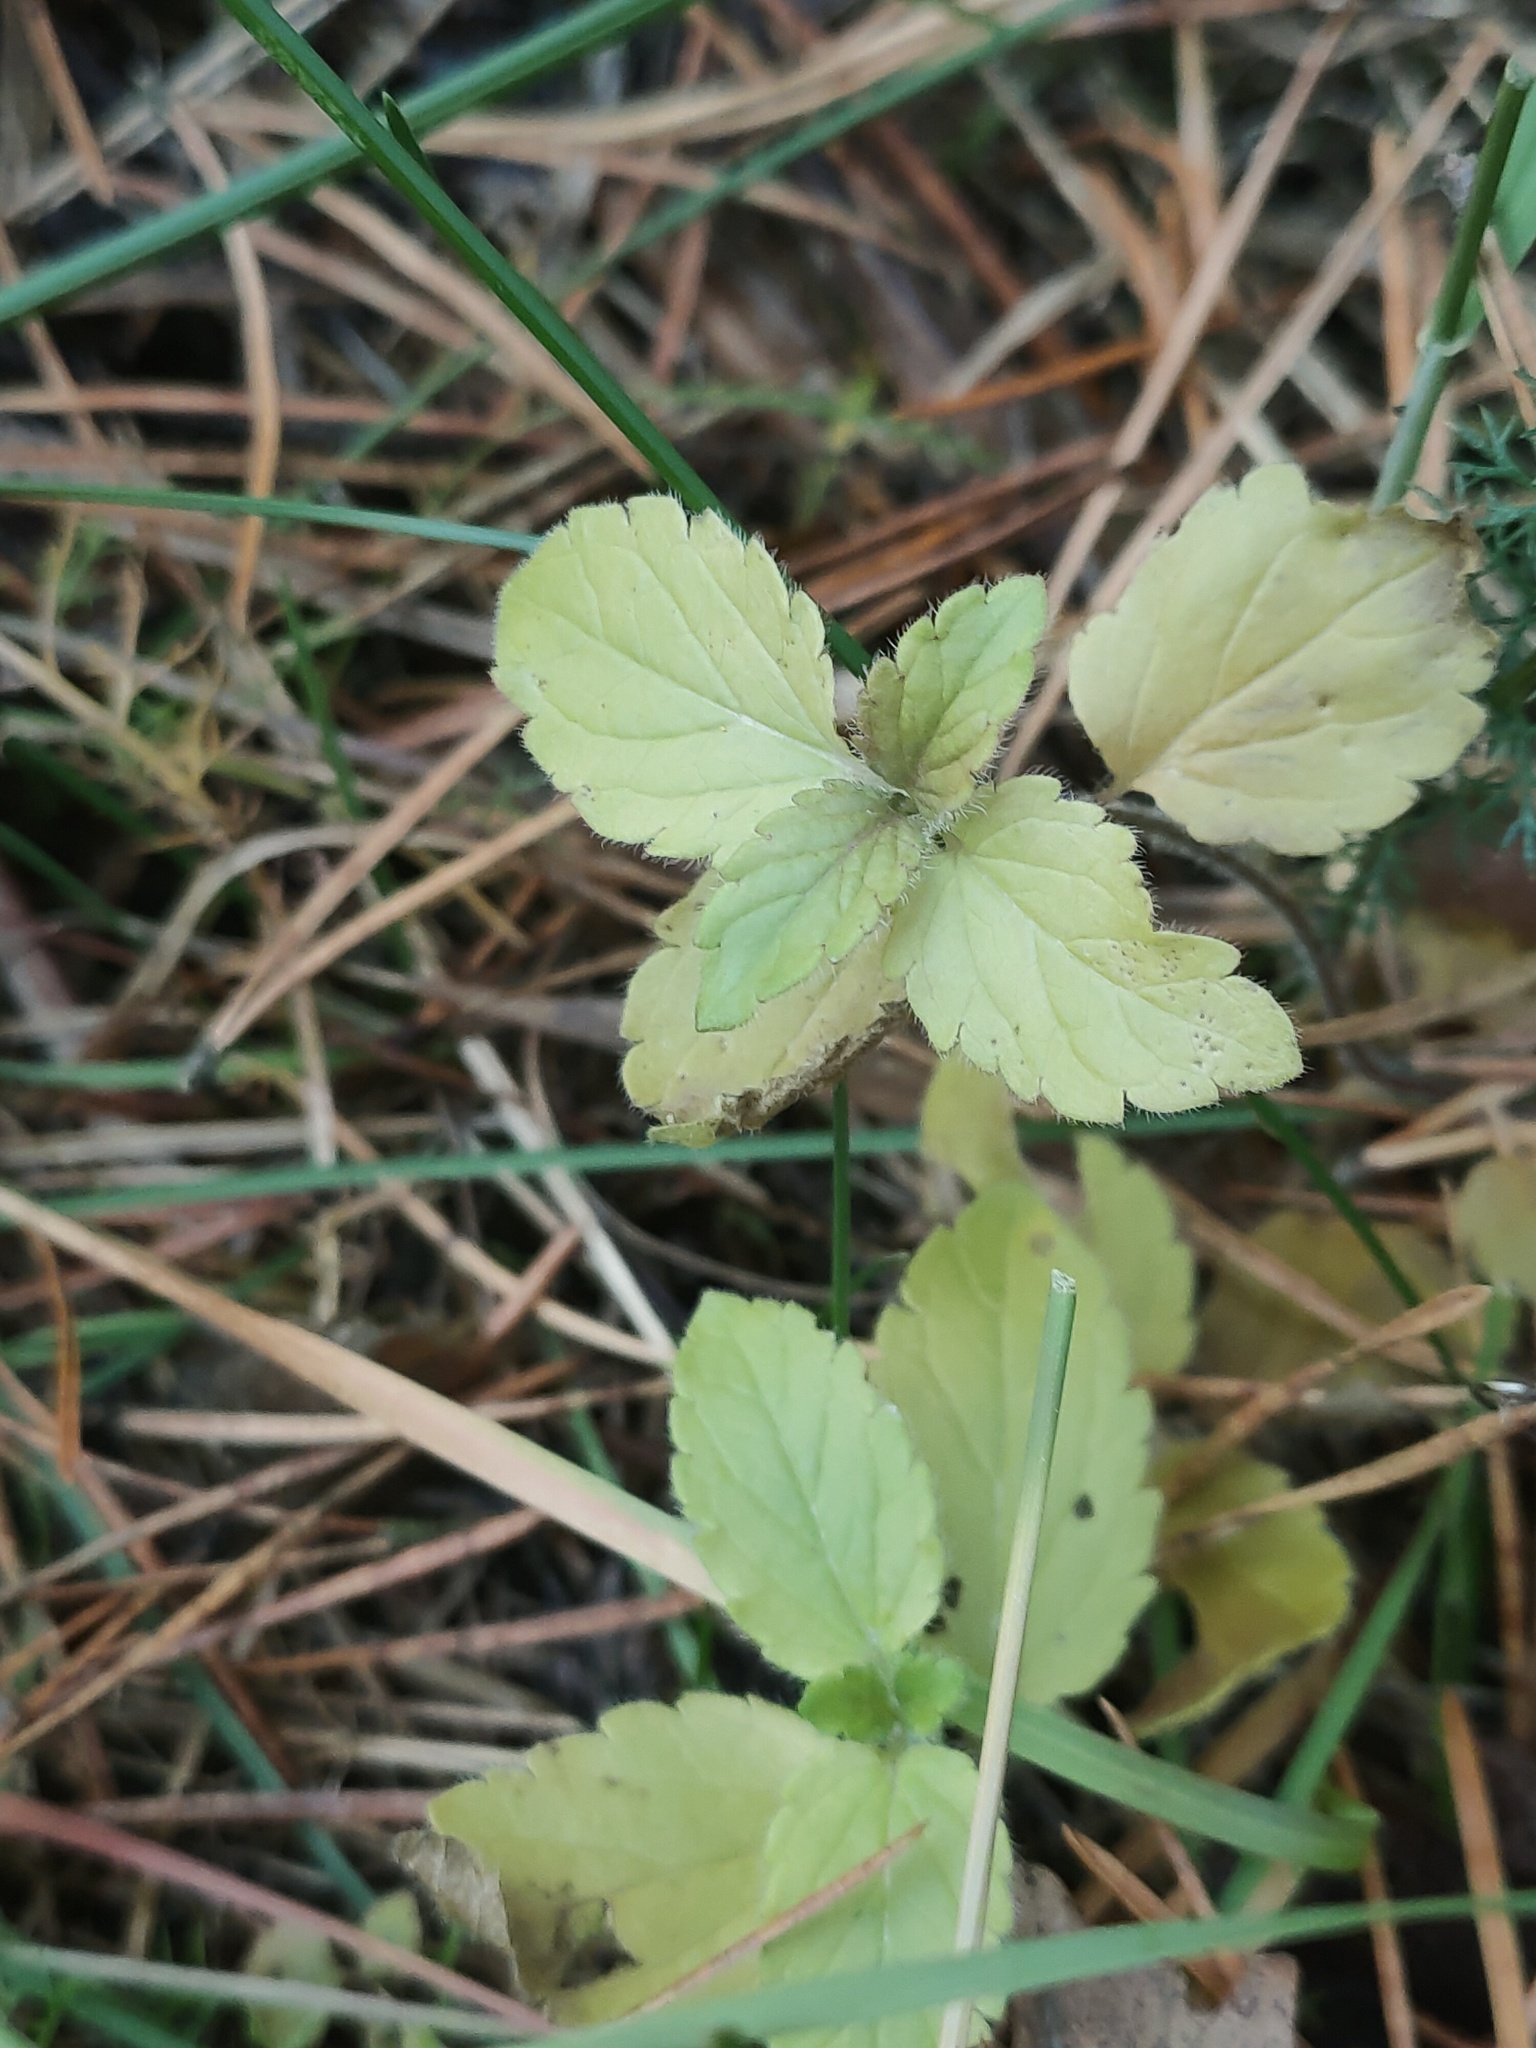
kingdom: Plantae
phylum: Tracheophyta
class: Magnoliopsida
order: Lamiales
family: Plantaginaceae
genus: Veronica
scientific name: Veronica chamaedrys
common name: Germander speedwell
